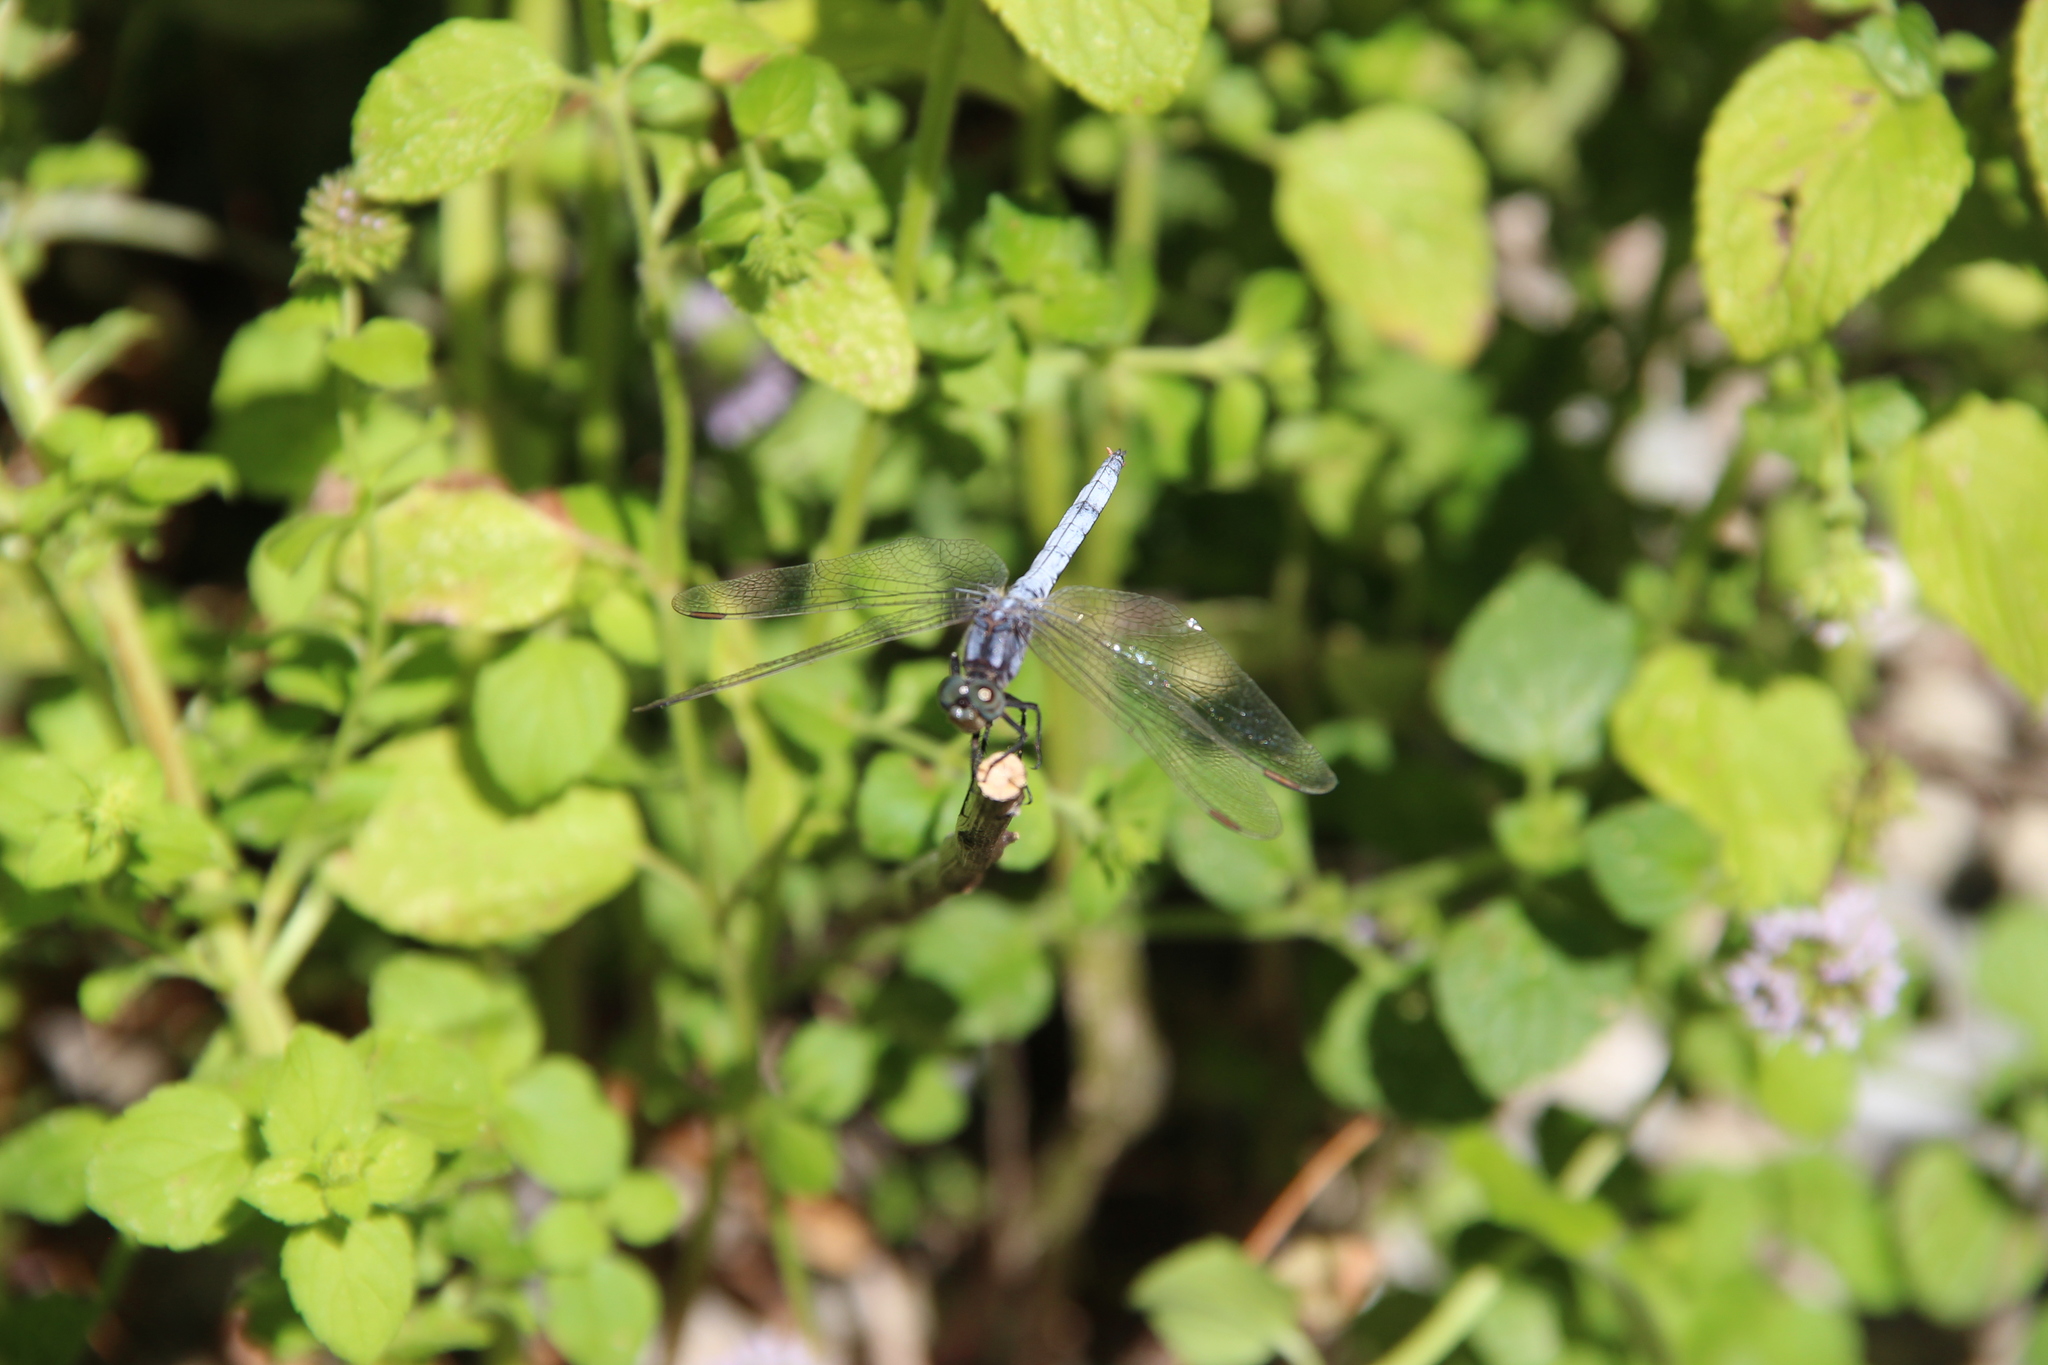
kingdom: Animalia
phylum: Arthropoda
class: Insecta
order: Odonata
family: Libellulidae
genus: Orthetrum
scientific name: Orthetrum coerulescens
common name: Keeled skimmer
